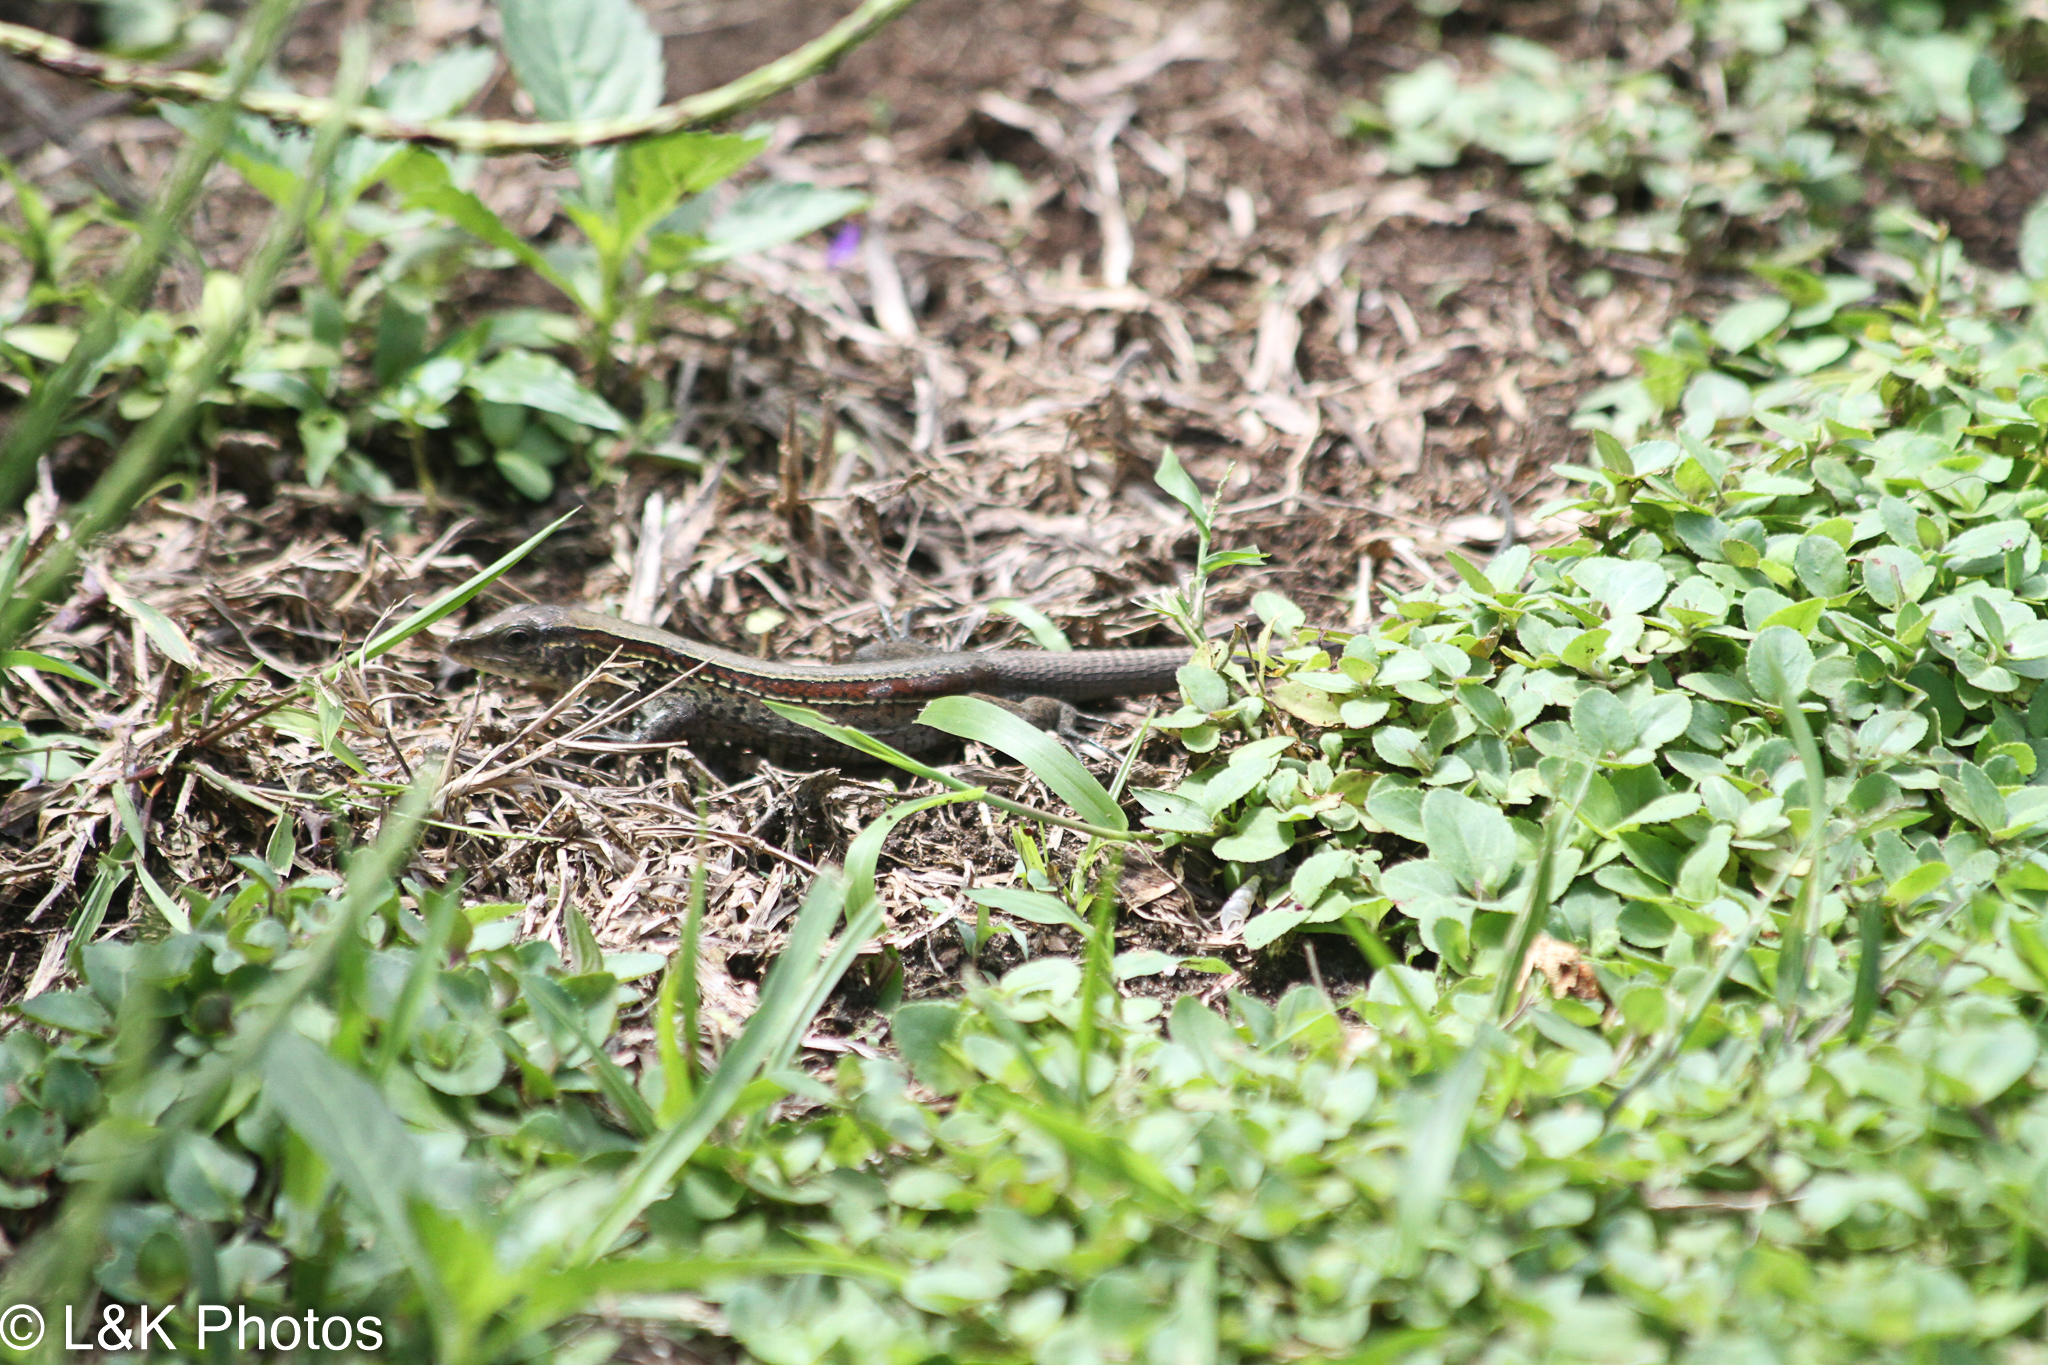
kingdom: Animalia
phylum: Chordata
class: Squamata
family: Teiidae
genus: Holcosus
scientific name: Holcosus quadrilineatus
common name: Four-lined ameiva
